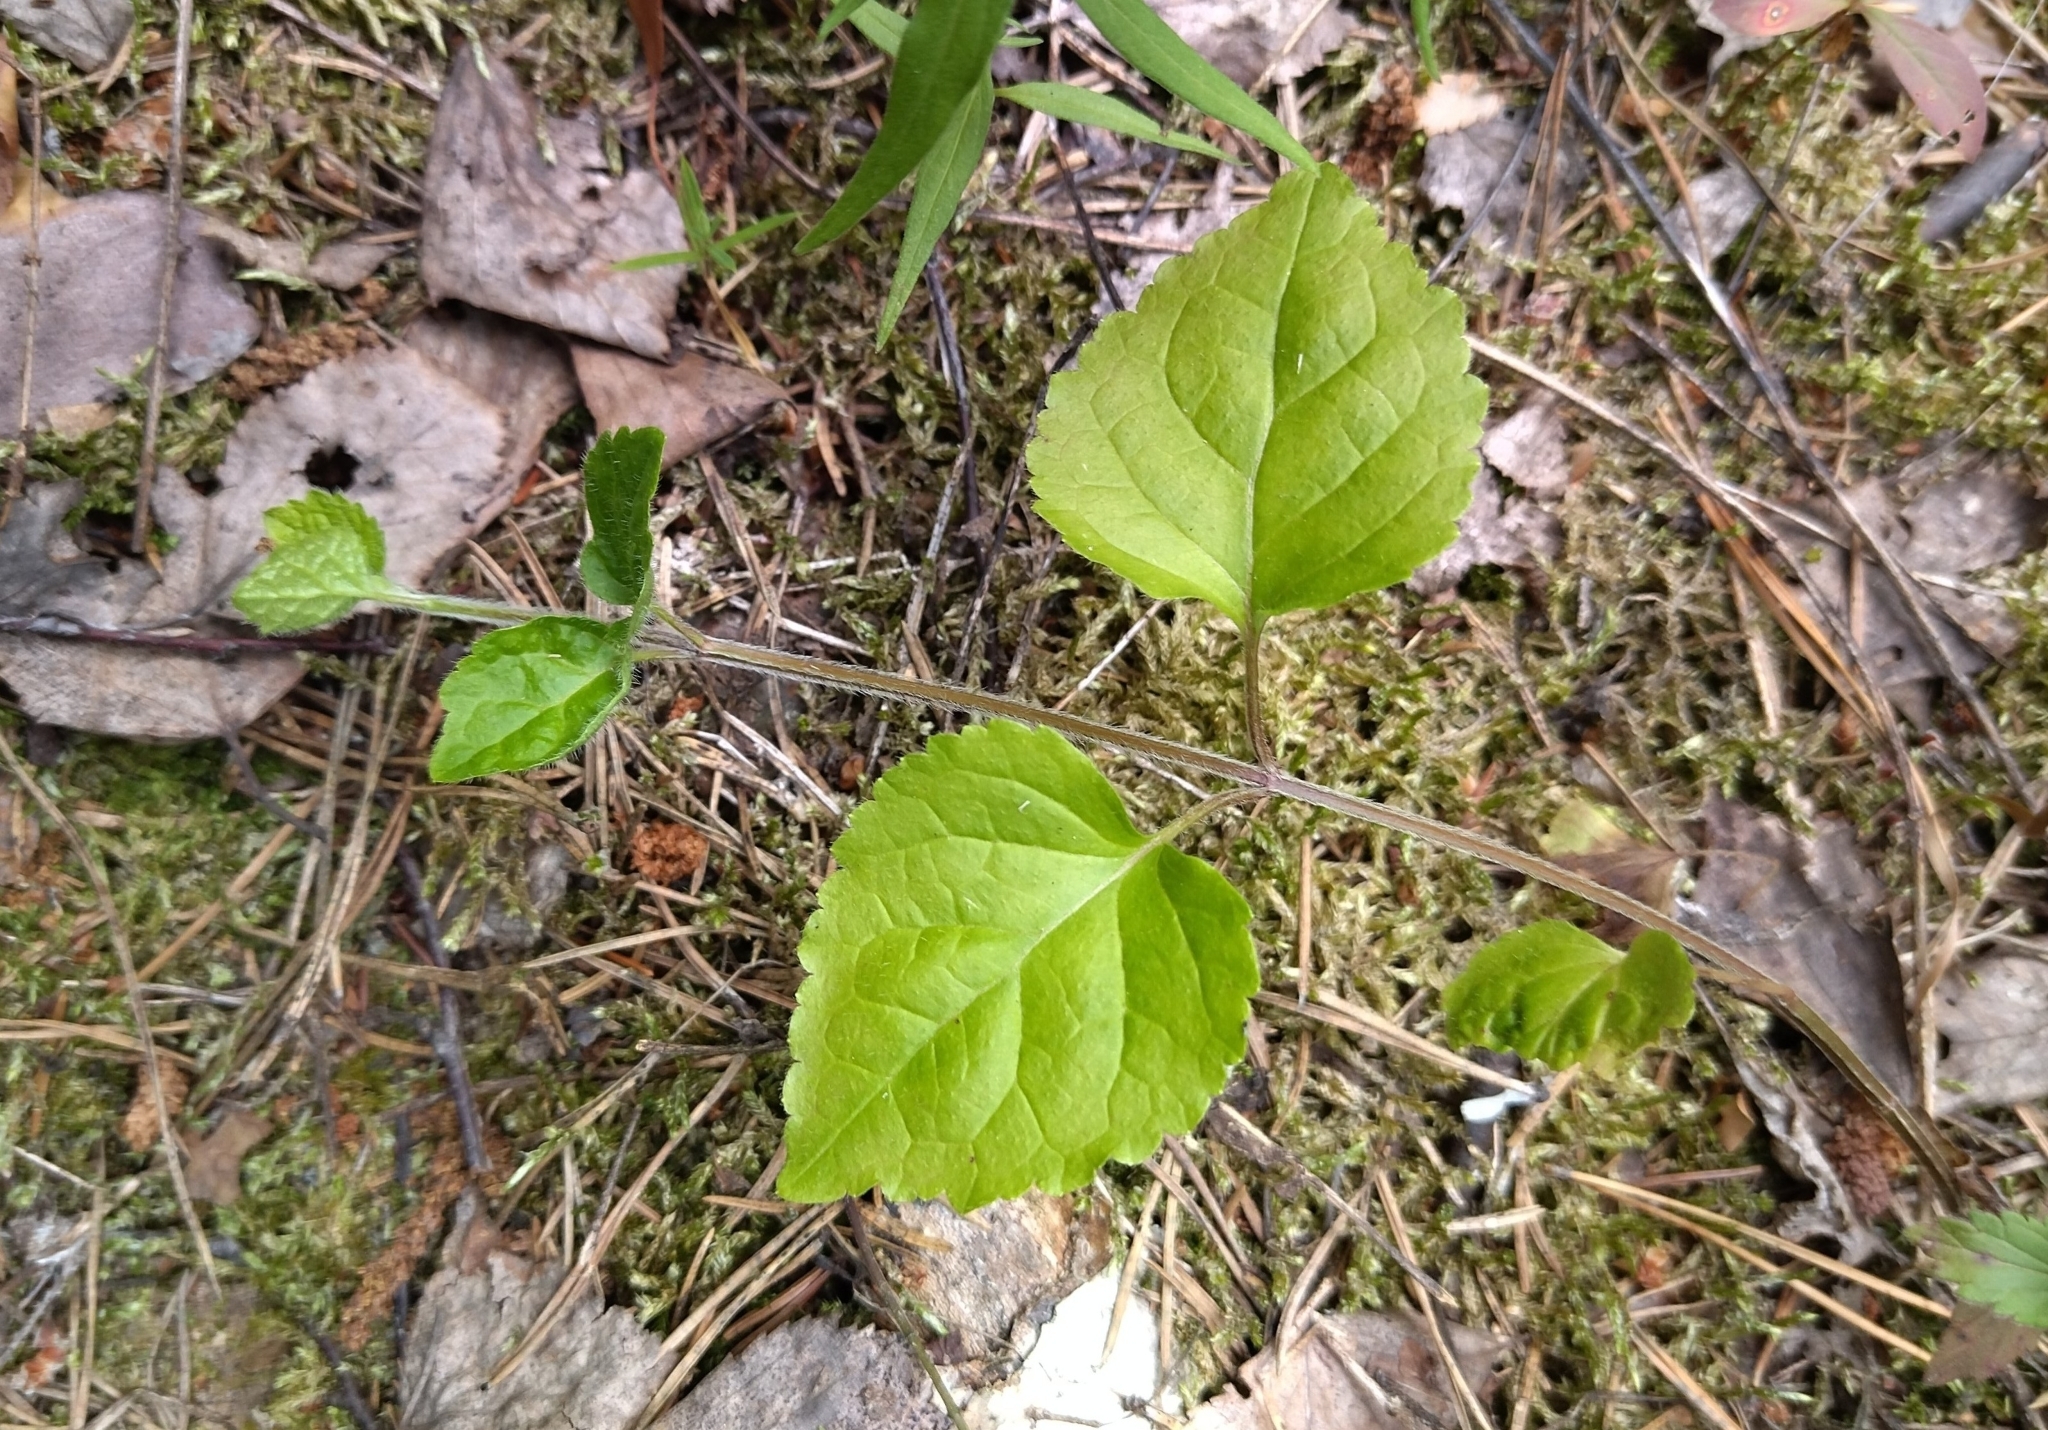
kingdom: Plantae
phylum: Tracheophyta
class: Magnoliopsida
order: Lamiales
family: Lamiaceae
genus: Lamium
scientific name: Lamium galeobdolon
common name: Yellow archangel
